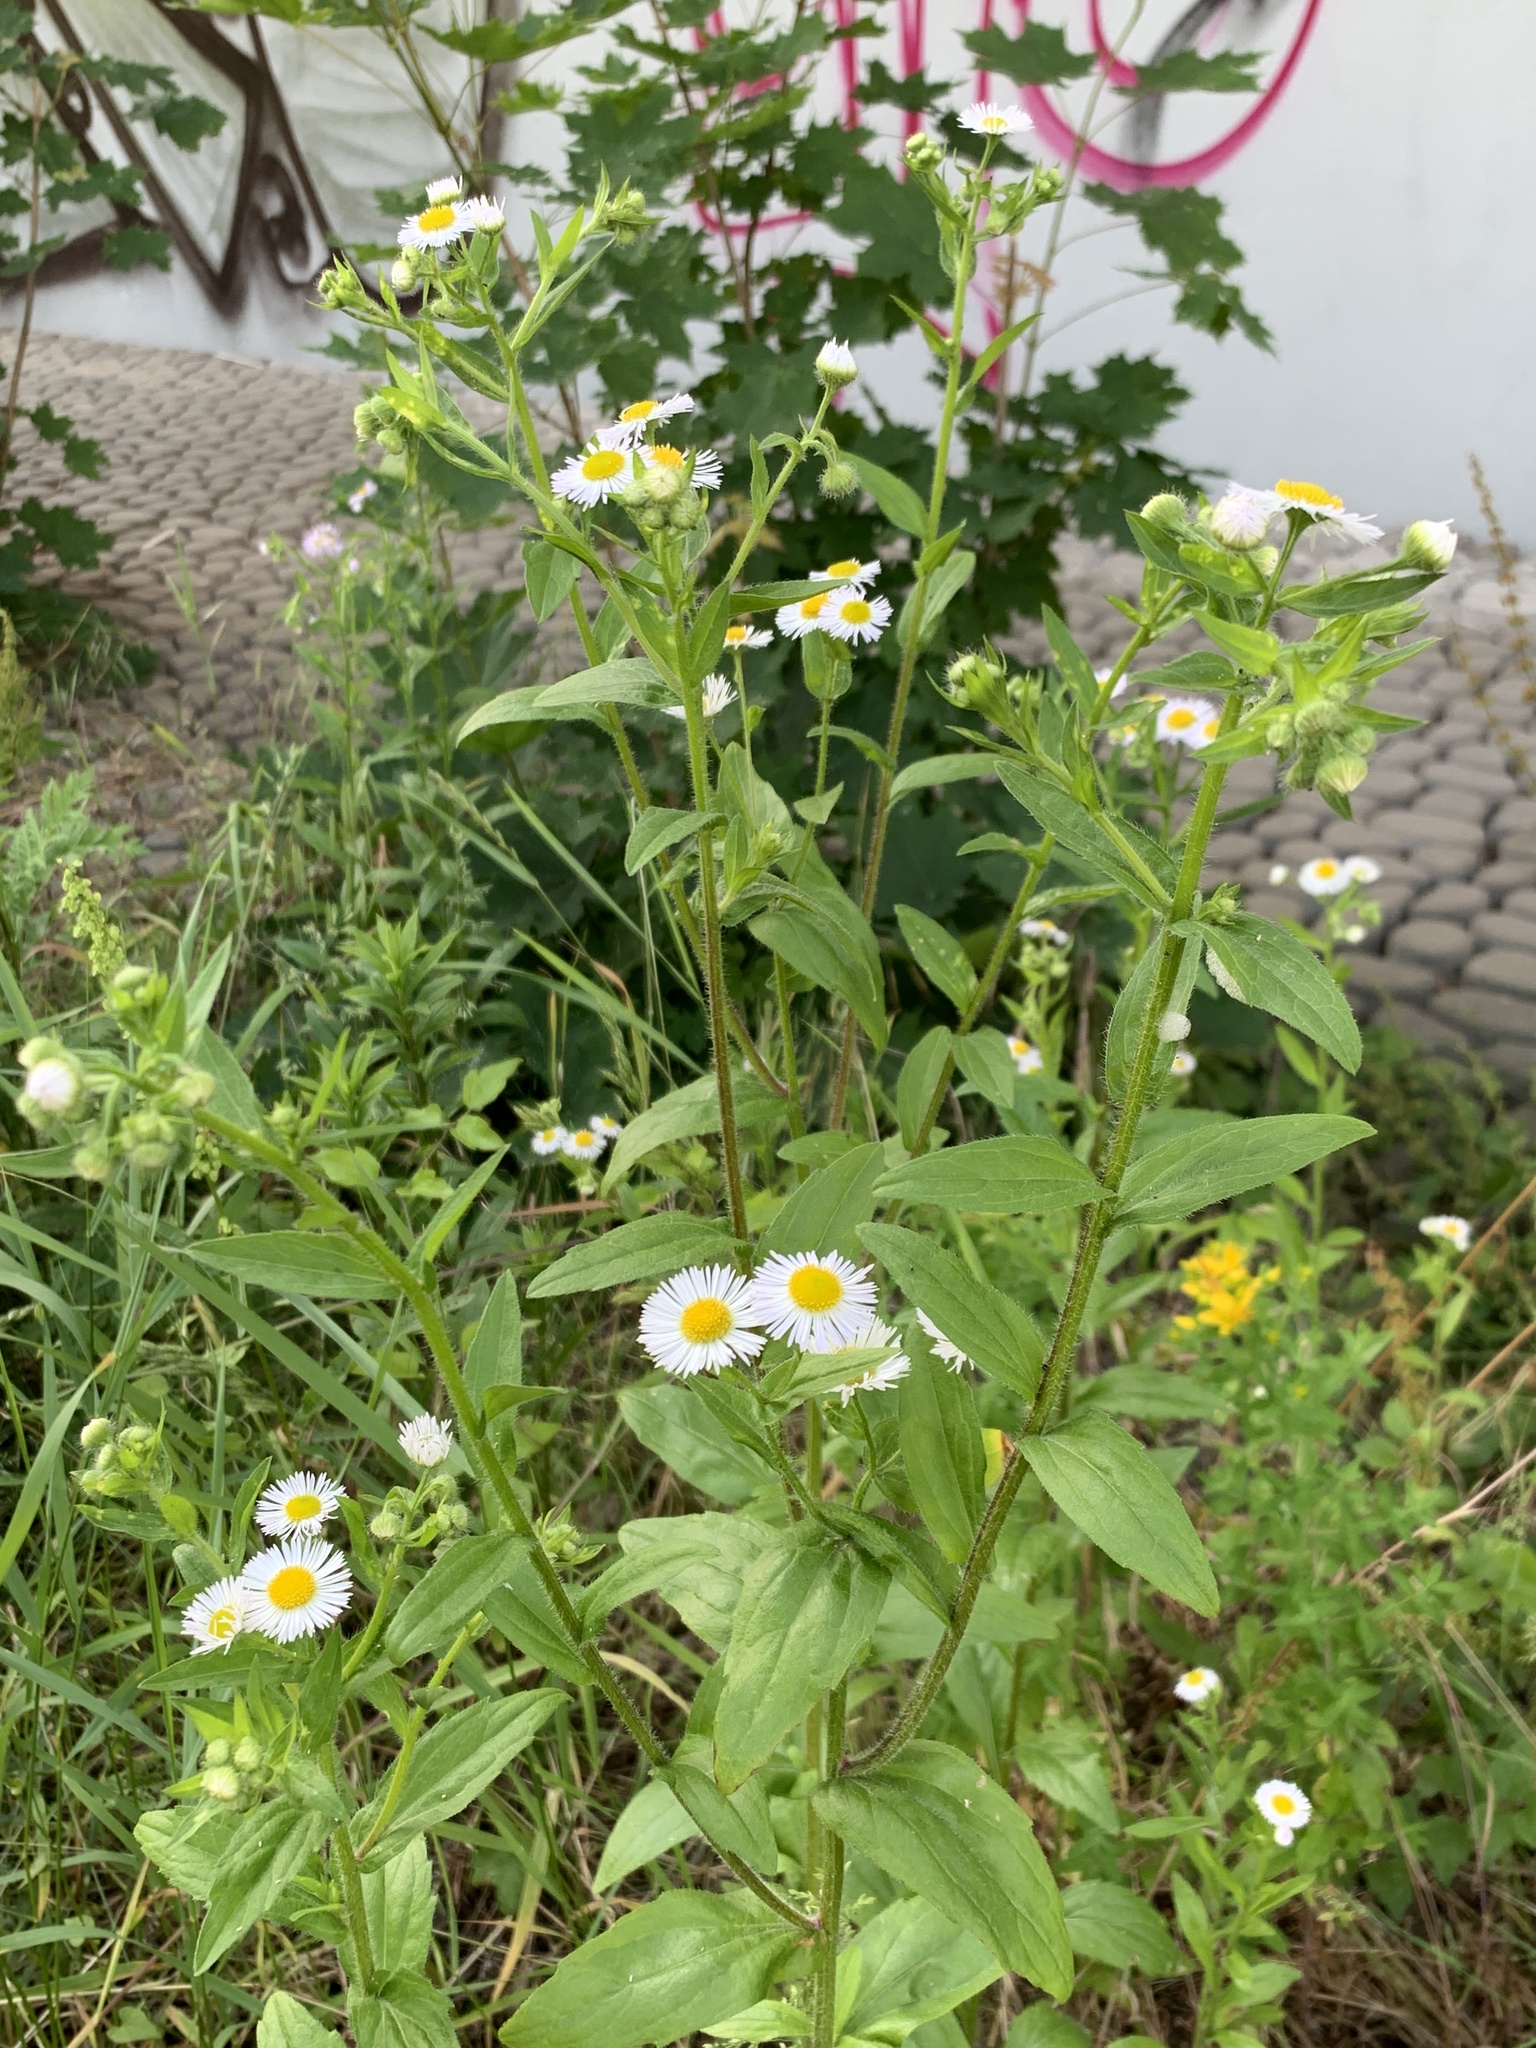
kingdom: Plantae
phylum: Tracheophyta
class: Magnoliopsida
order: Asterales
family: Asteraceae
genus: Erigeron
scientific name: Erigeron annuus
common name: Tall fleabane
